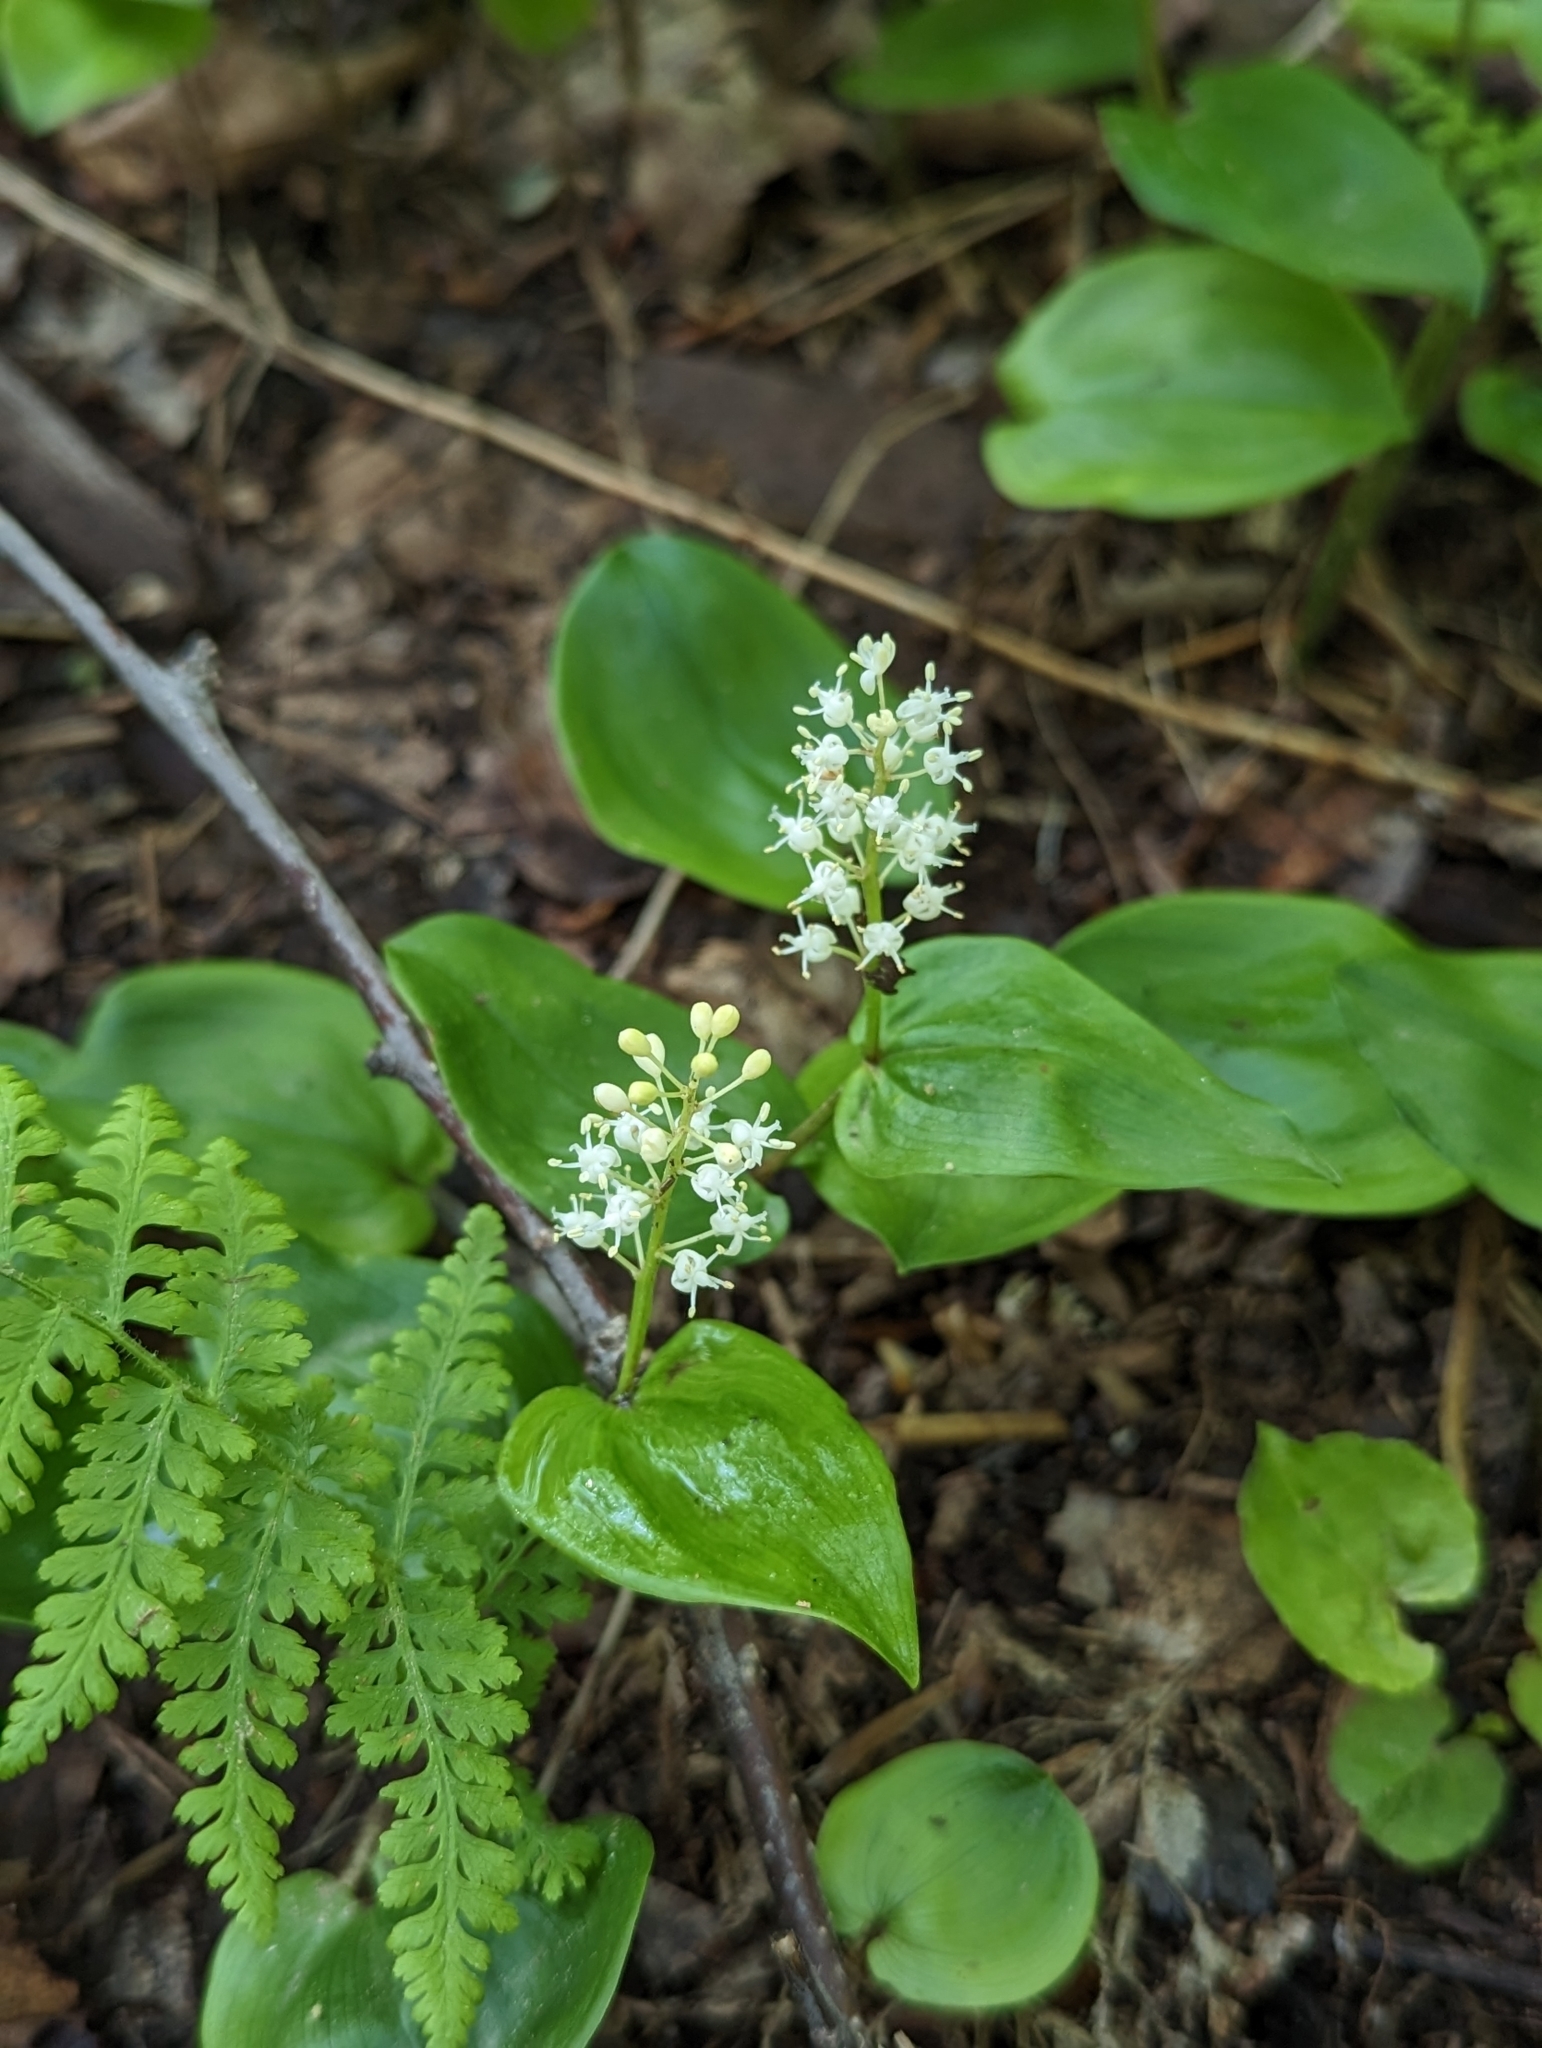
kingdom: Plantae
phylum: Tracheophyta
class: Liliopsida
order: Asparagales
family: Asparagaceae
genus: Maianthemum
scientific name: Maianthemum canadense
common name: False lily-of-the-valley
